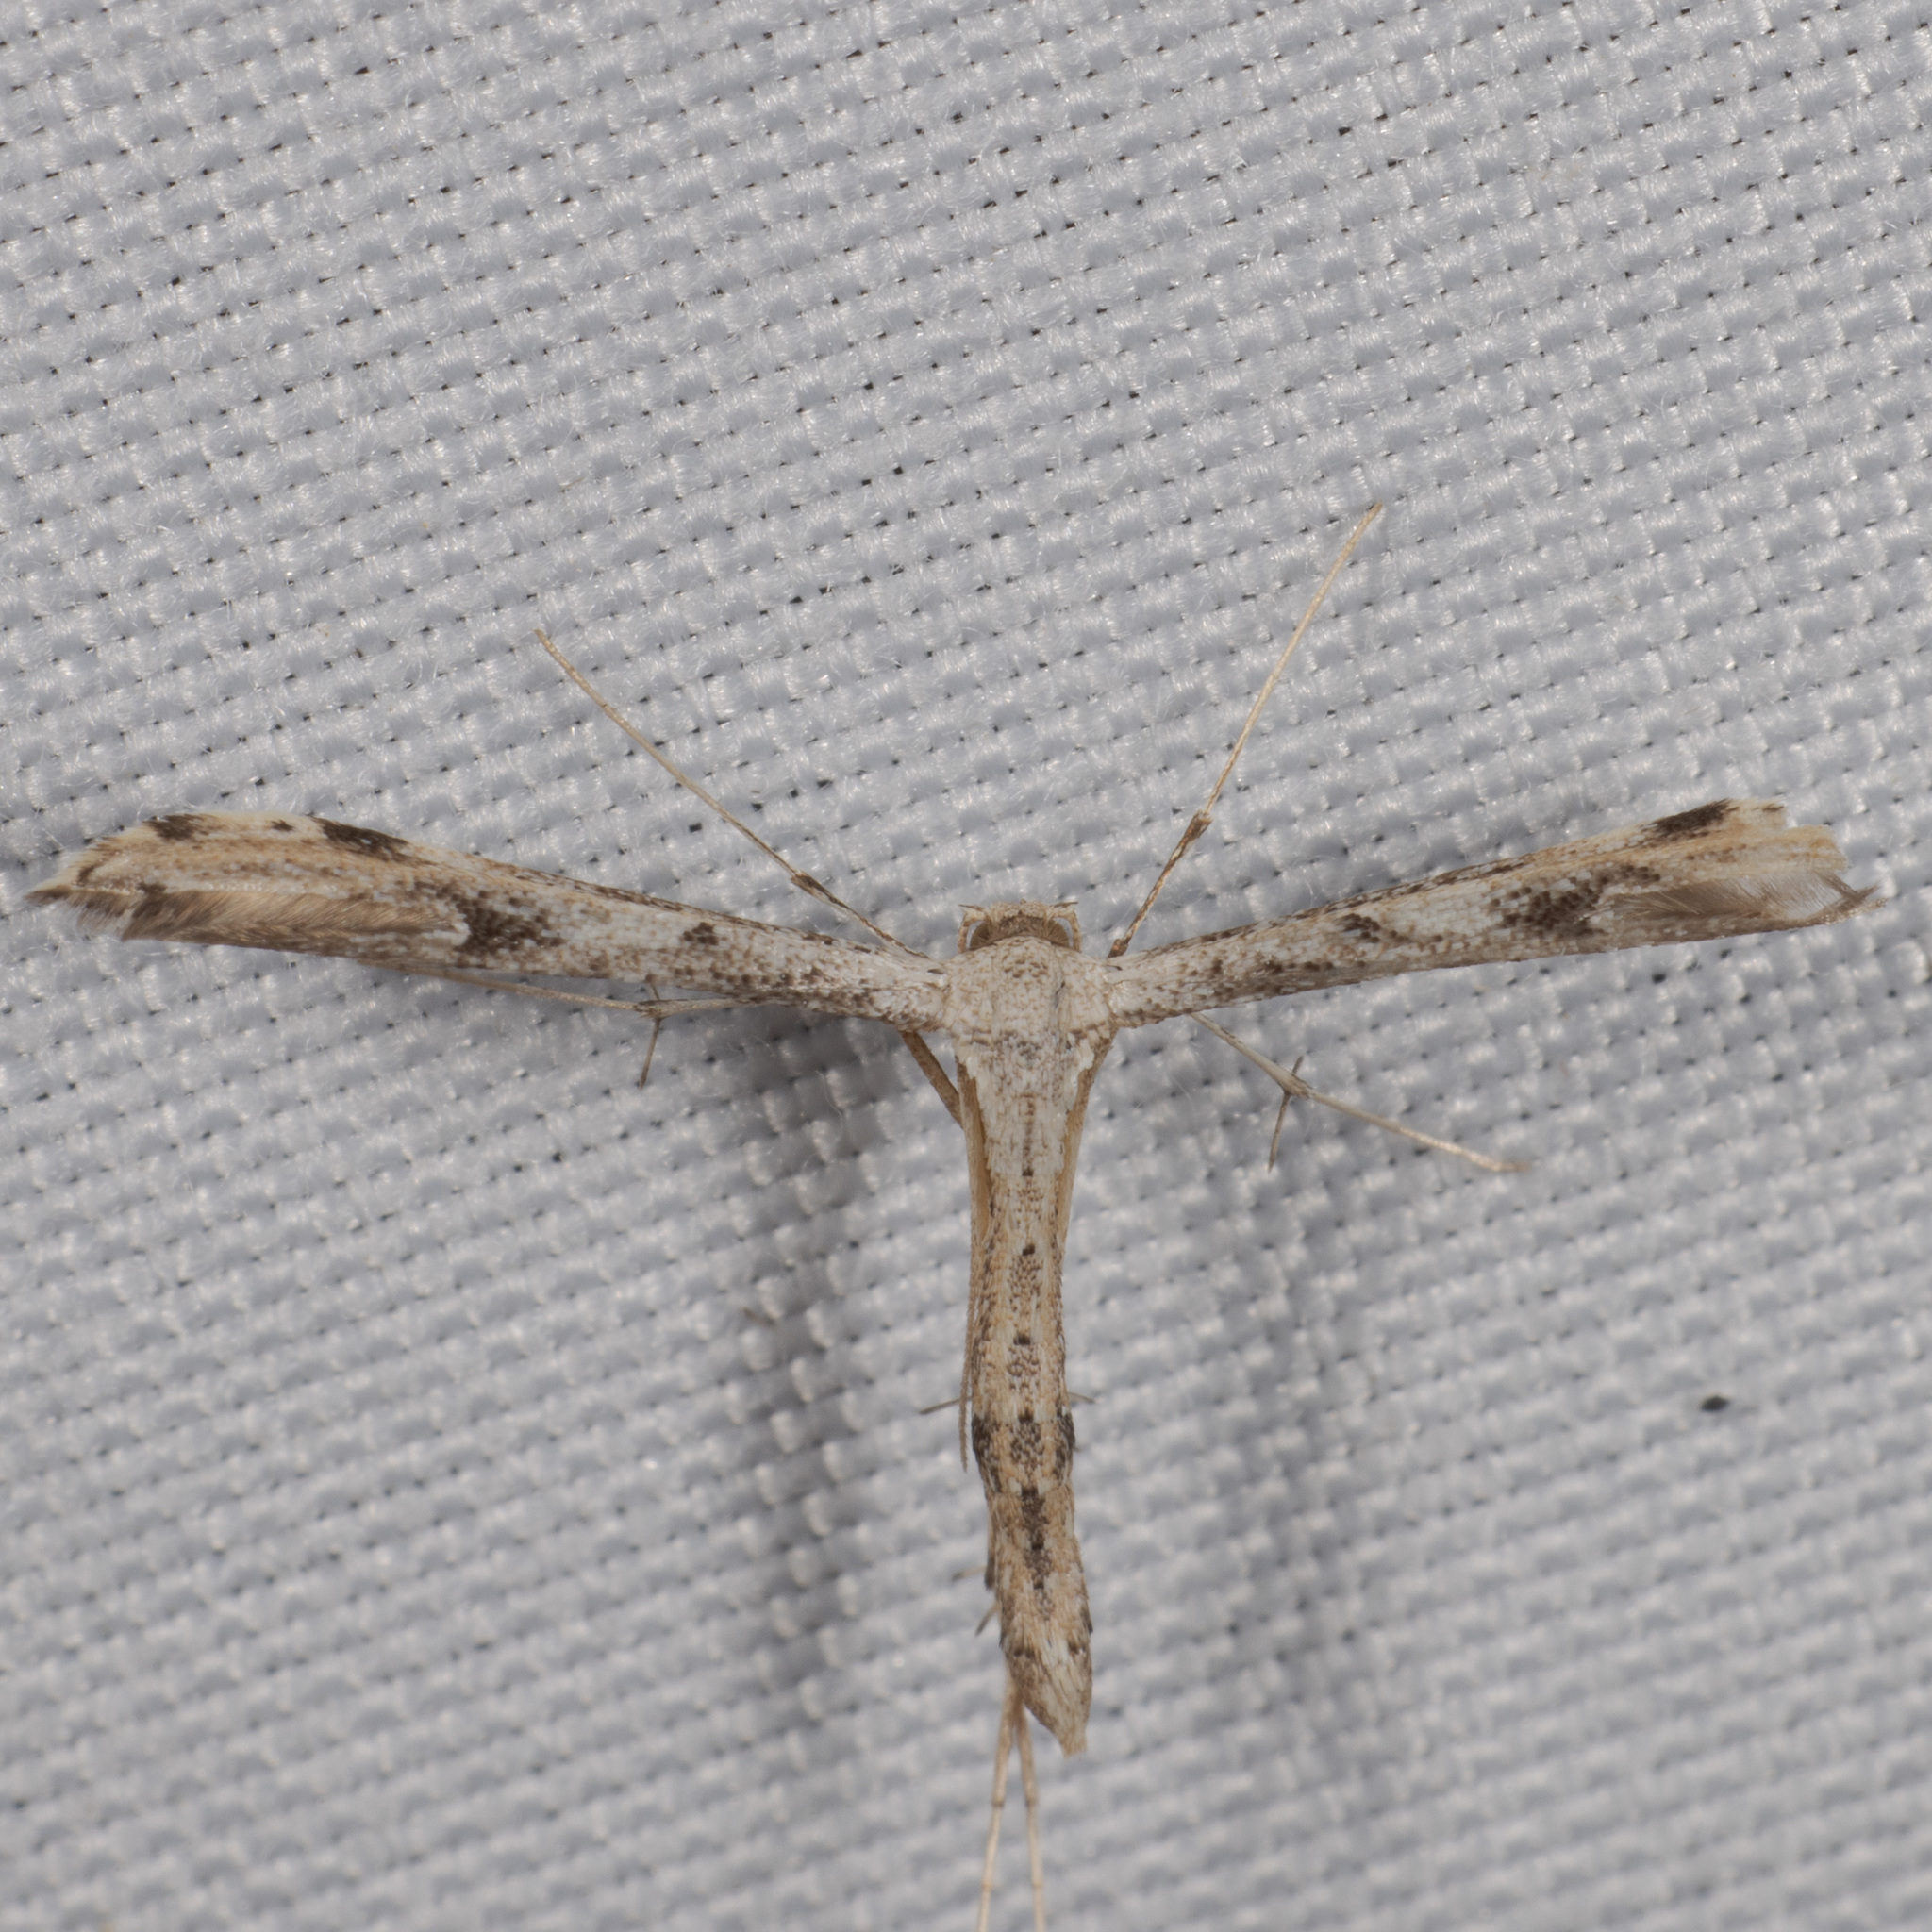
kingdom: Animalia
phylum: Arthropoda
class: Insecta
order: Lepidoptera
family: Pterophoridae
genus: Adaina
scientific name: Adaina ambrosiae
